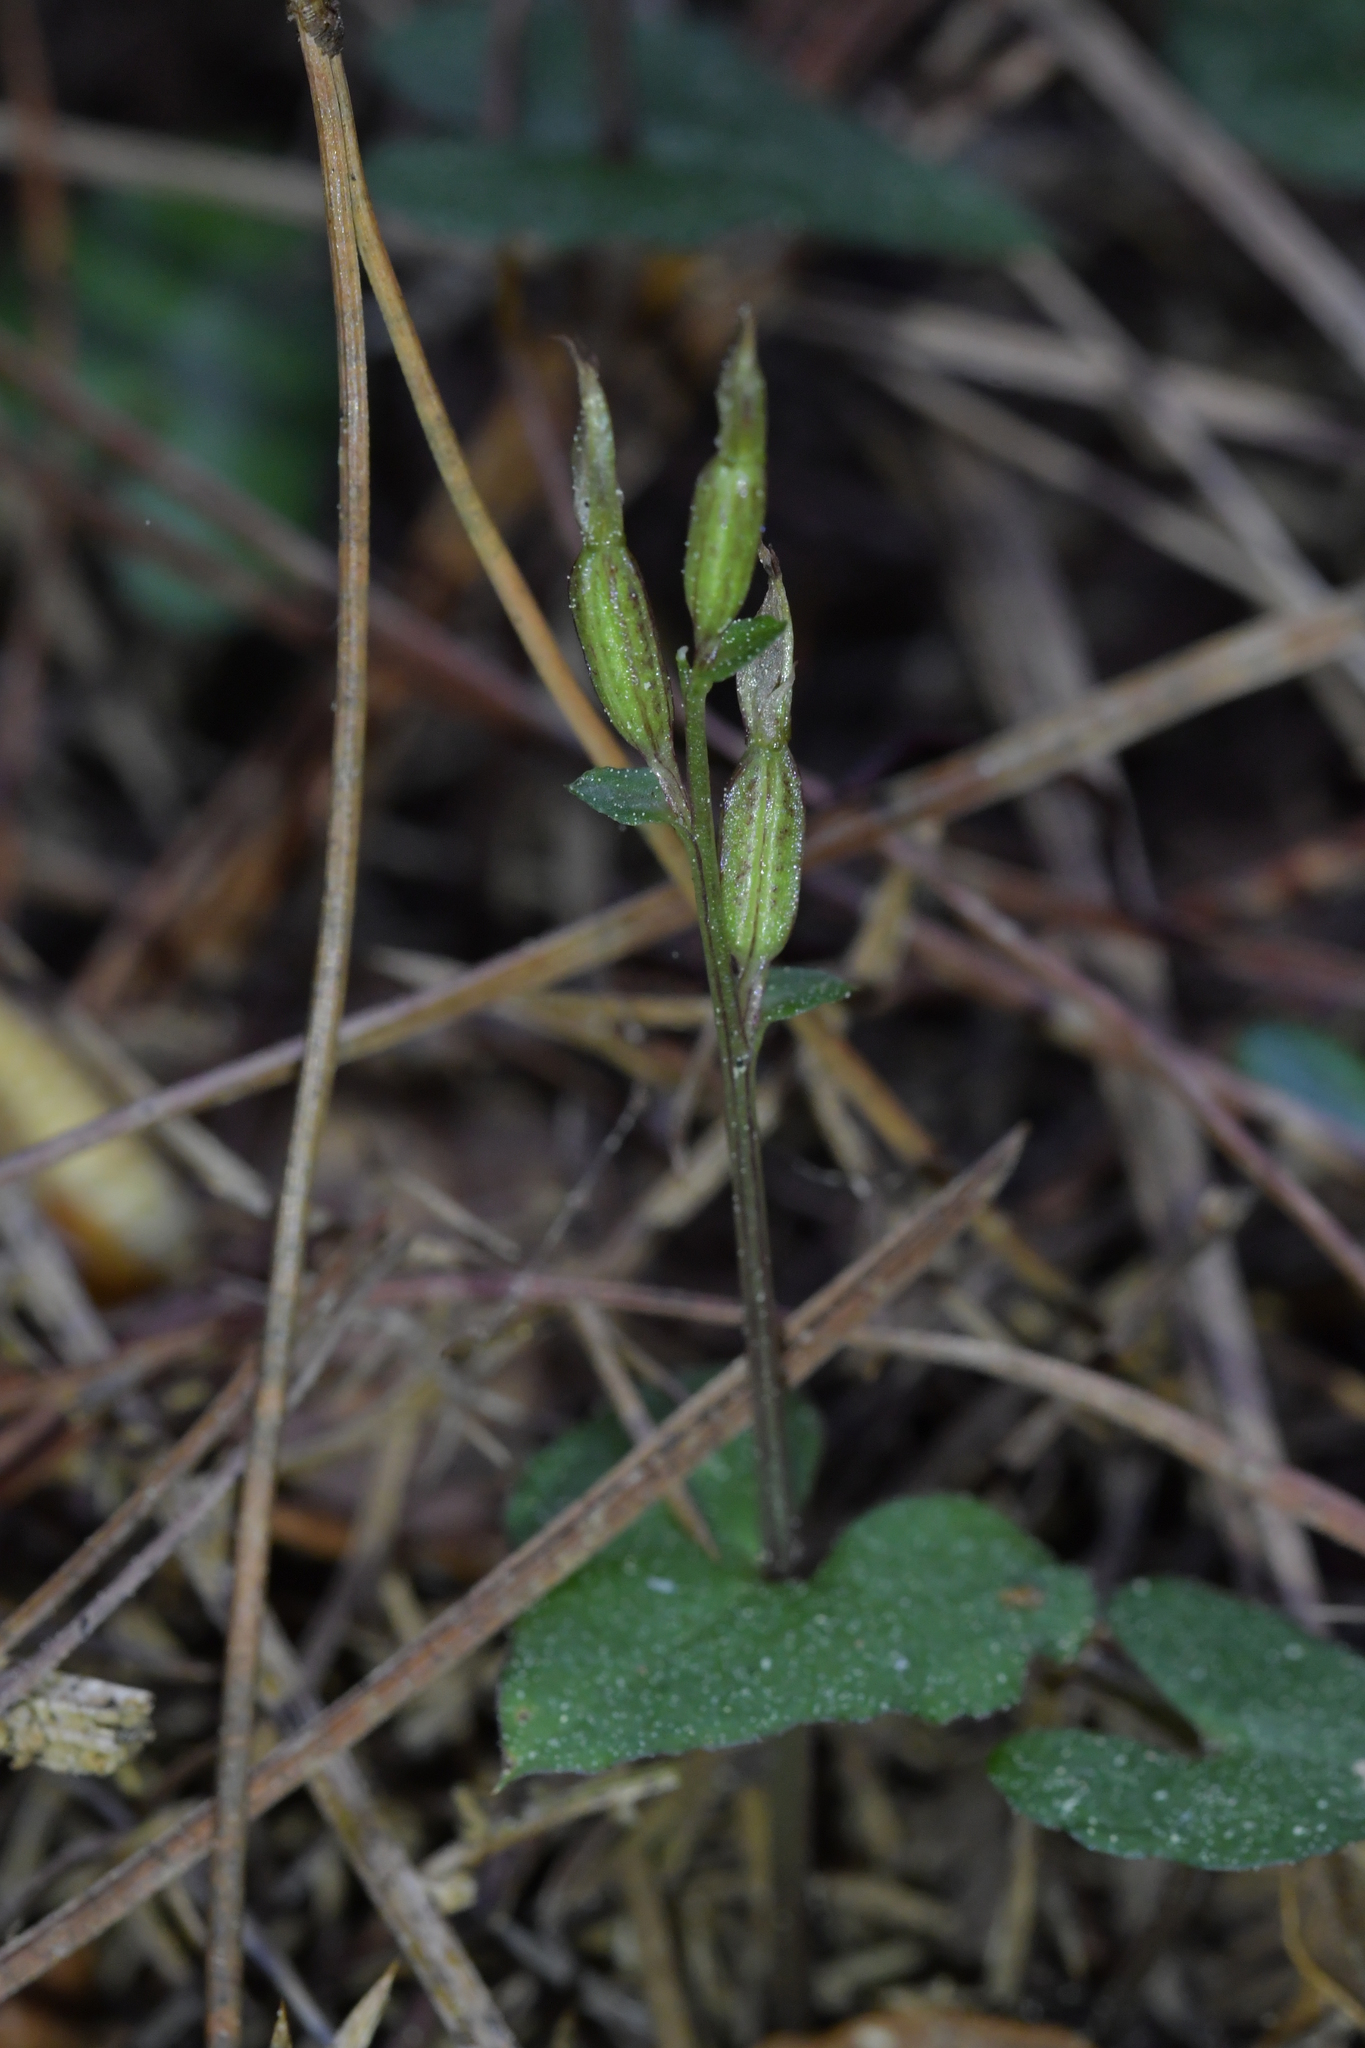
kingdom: Plantae
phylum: Tracheophyta
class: Liliopsida
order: Asparagales
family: Orchidaceae
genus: Acianthus
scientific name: Acianthus sinclairii
